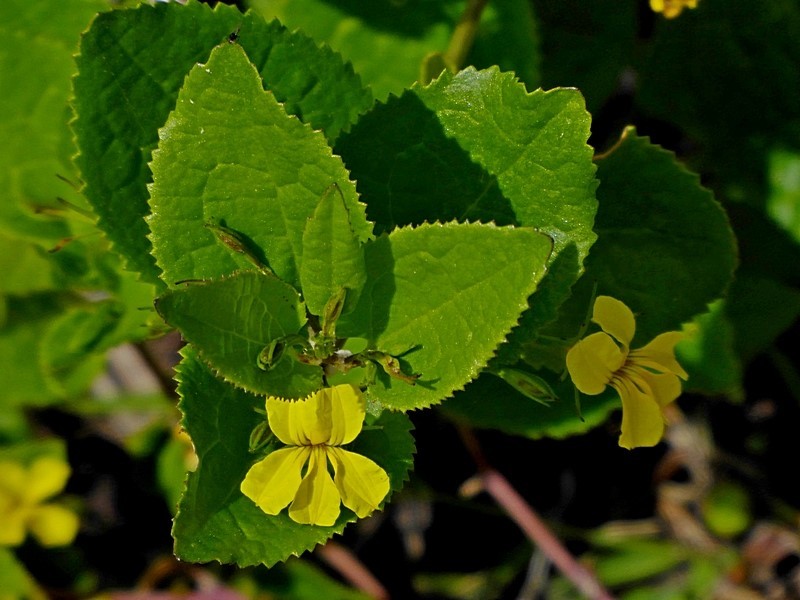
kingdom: Plantae
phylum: Tracheophyta
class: Magnoliopsida
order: Asterales
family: Goodeniaceae
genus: Goodenia
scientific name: Goodenia ovata
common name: Hop goodenia
